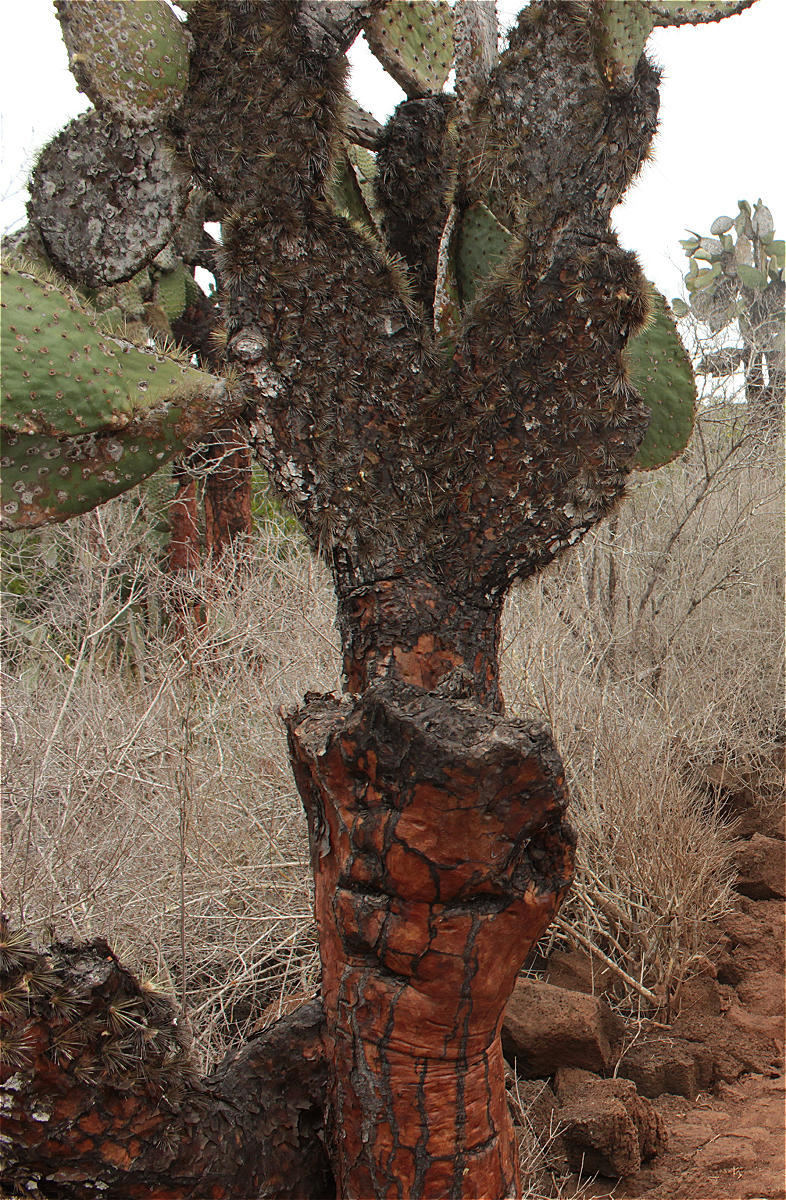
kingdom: Plantae
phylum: Tracheophyta
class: Magnoliopsida
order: Caryophyllales
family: Cactaceae
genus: Opuntia
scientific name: Opuntia galapageia
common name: Galápagos prickly pear
